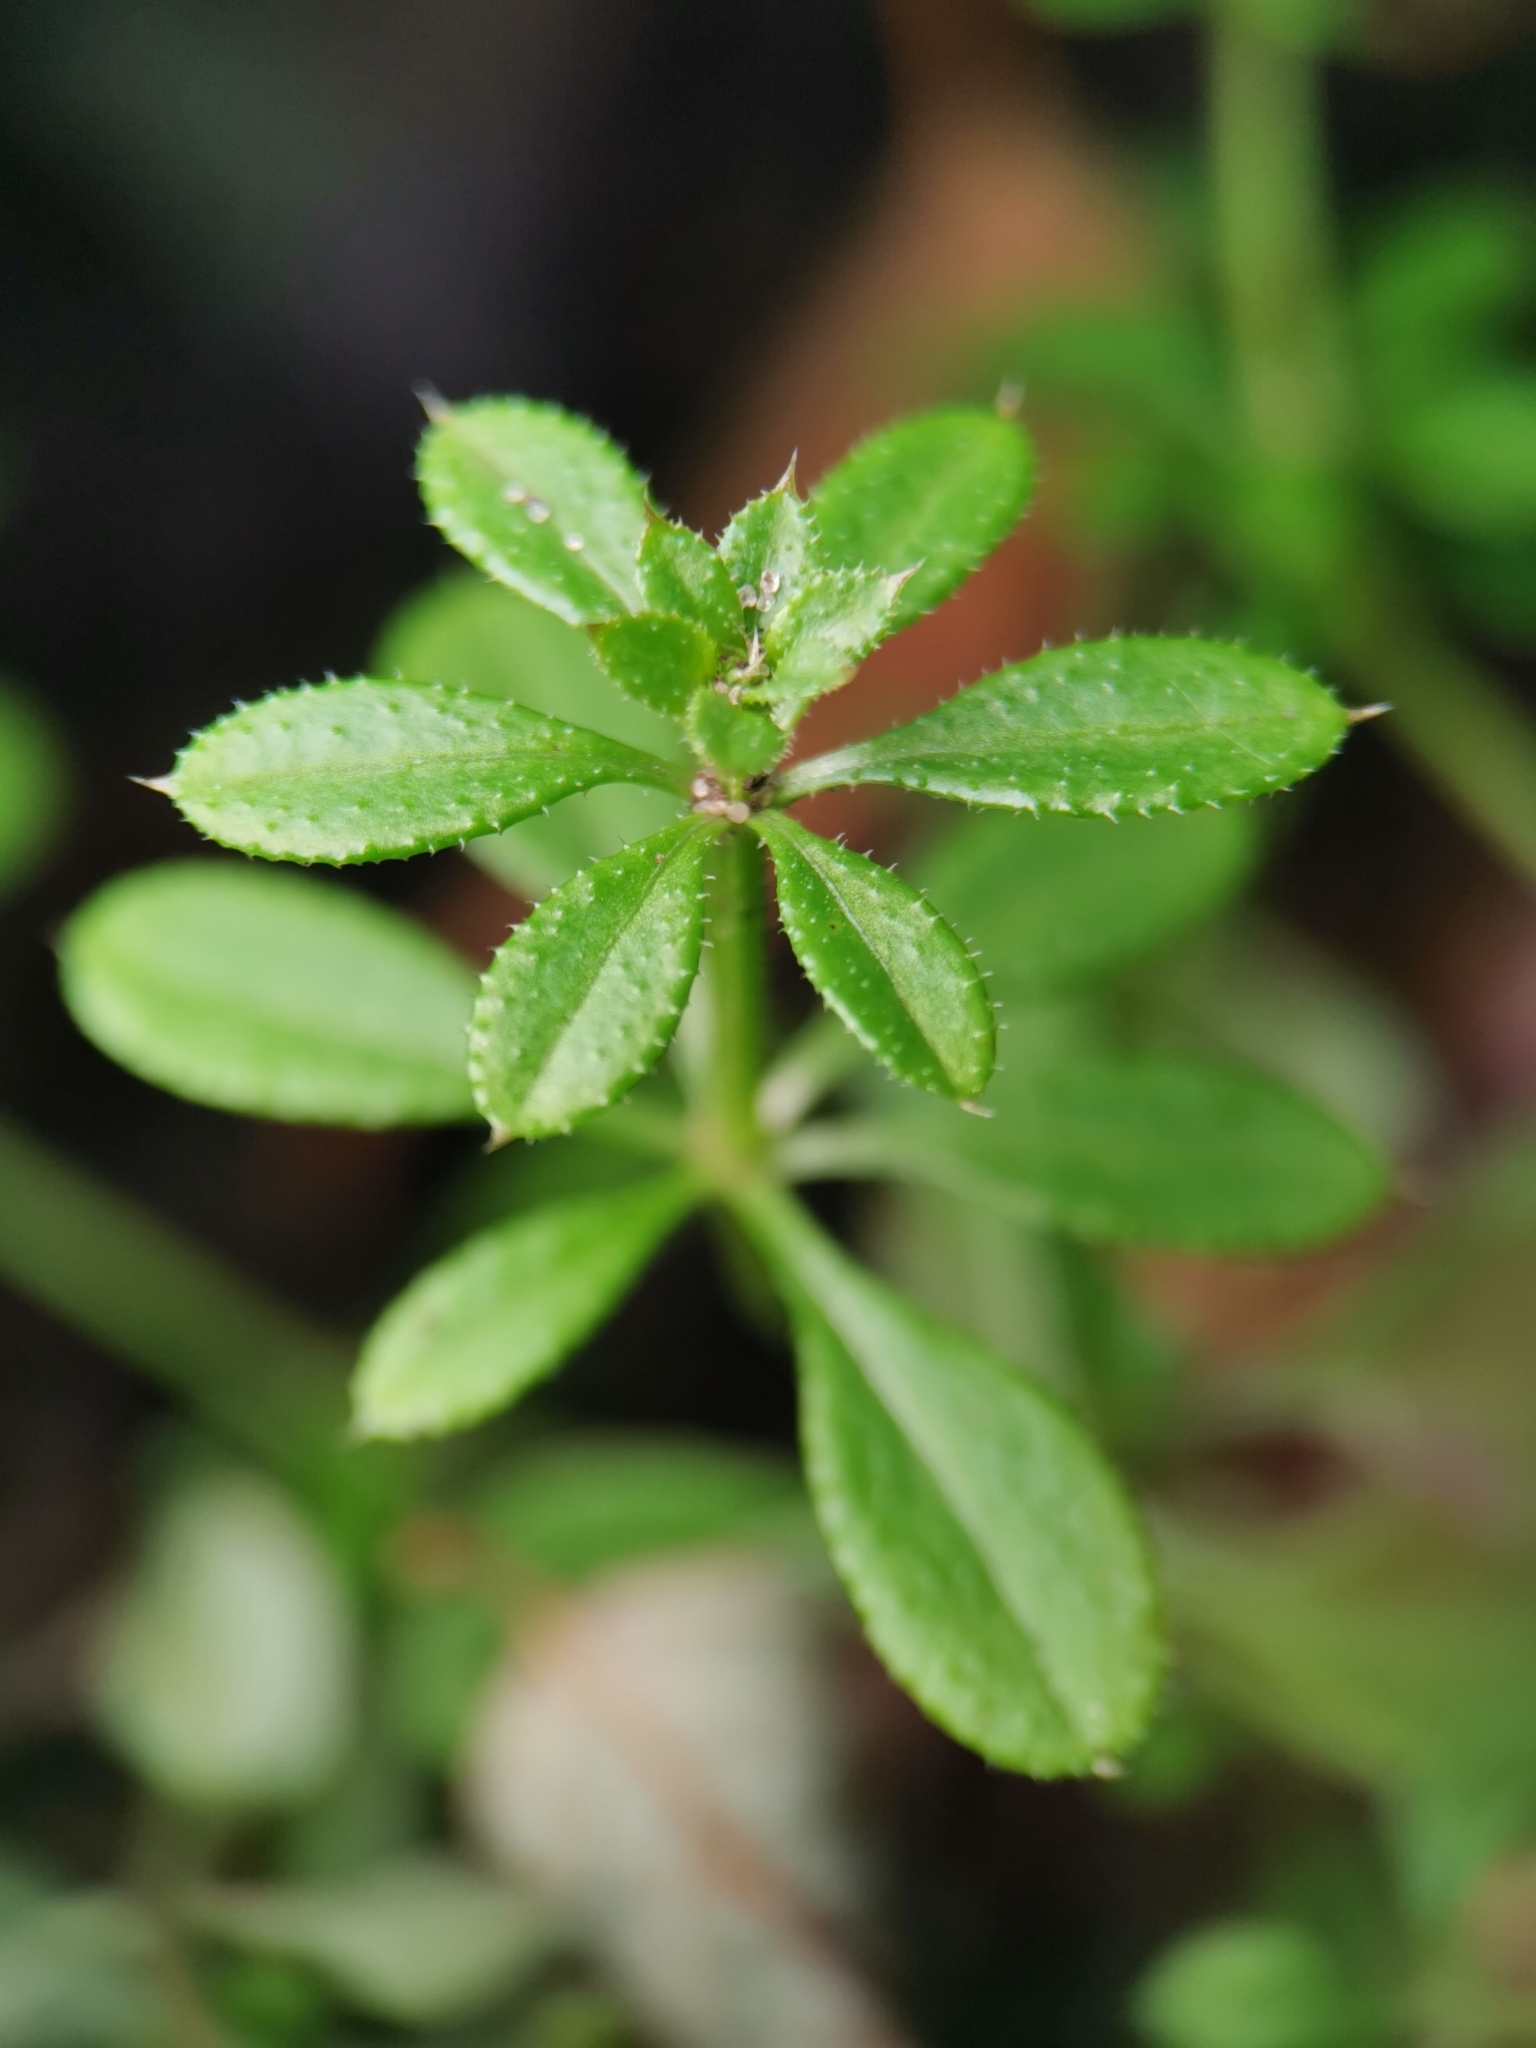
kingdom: Plantae
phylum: Tracheophyta
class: Magnoliopsida
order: Gentianales
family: Rubiaceae
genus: Galium
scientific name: Galium aparine
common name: Cleavers
